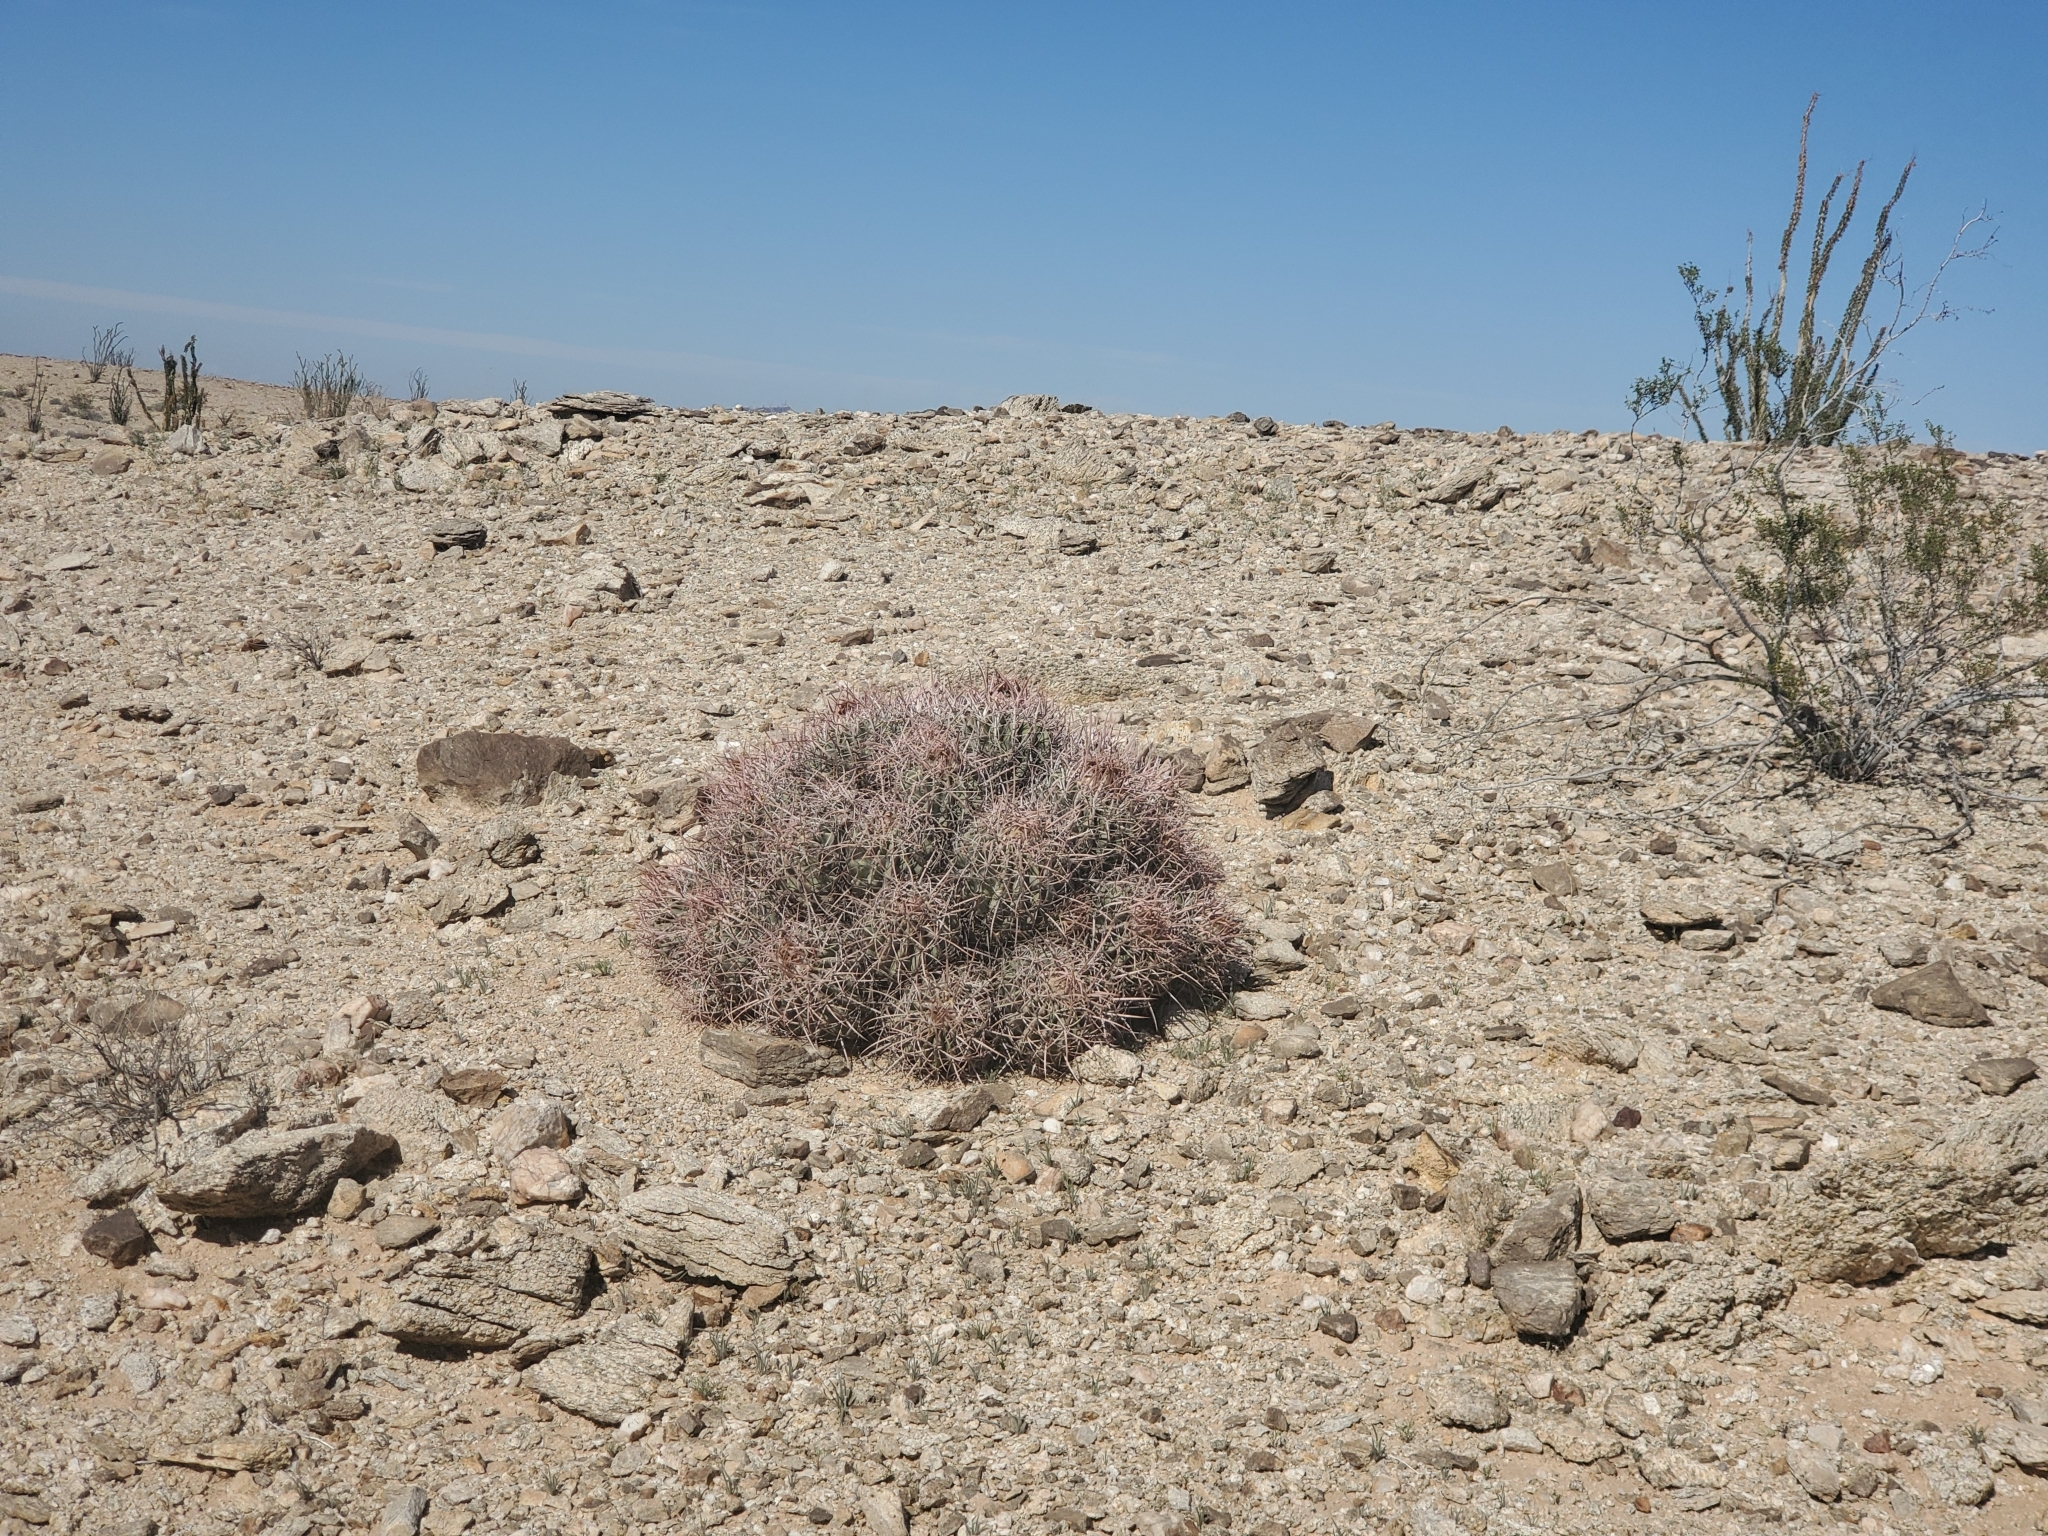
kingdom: Plantae
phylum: Tracheophyta
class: Magnoliopsida
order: Caryophyllales
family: Cactaceae
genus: Echinocactus
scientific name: Echinocactus polycephalus
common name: Cottontop cactus
